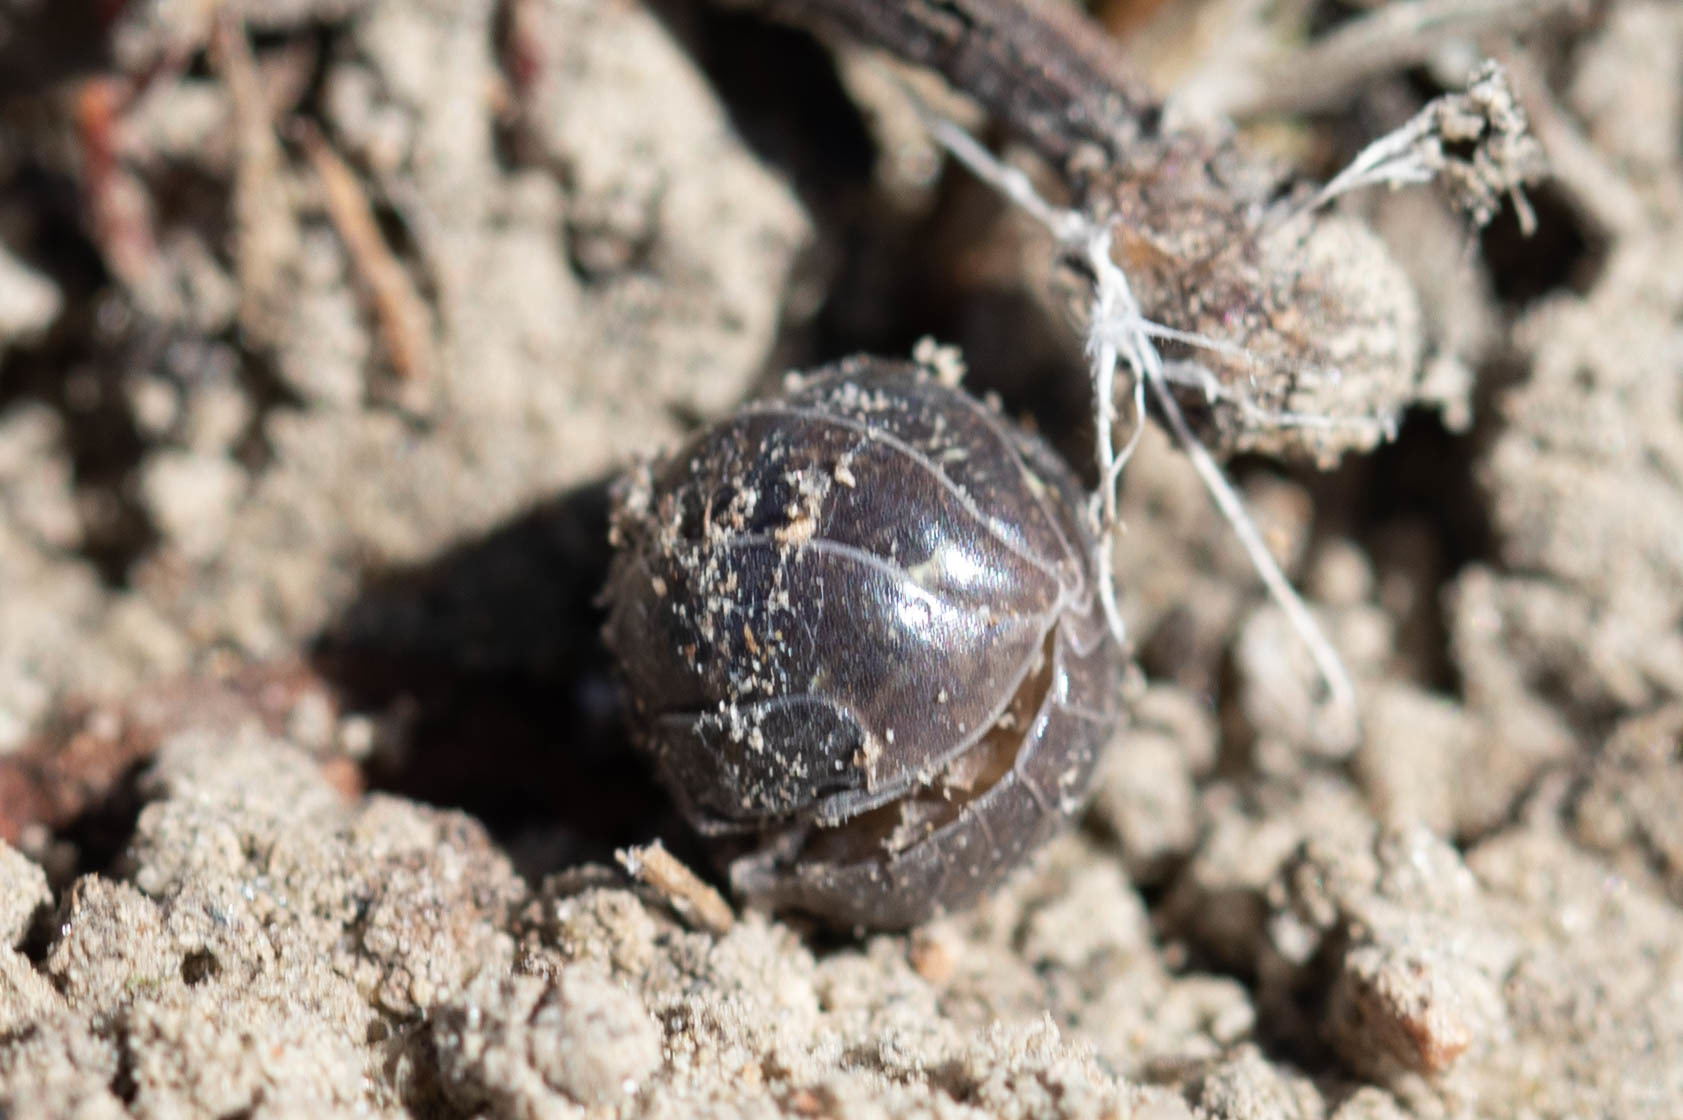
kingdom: Animalia
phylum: Arthropoda
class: Malacostraca
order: Isopoda
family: Armadillidiidae
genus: Armadillidium
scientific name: Armadillidium vulgare
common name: Common pill woodlouse
